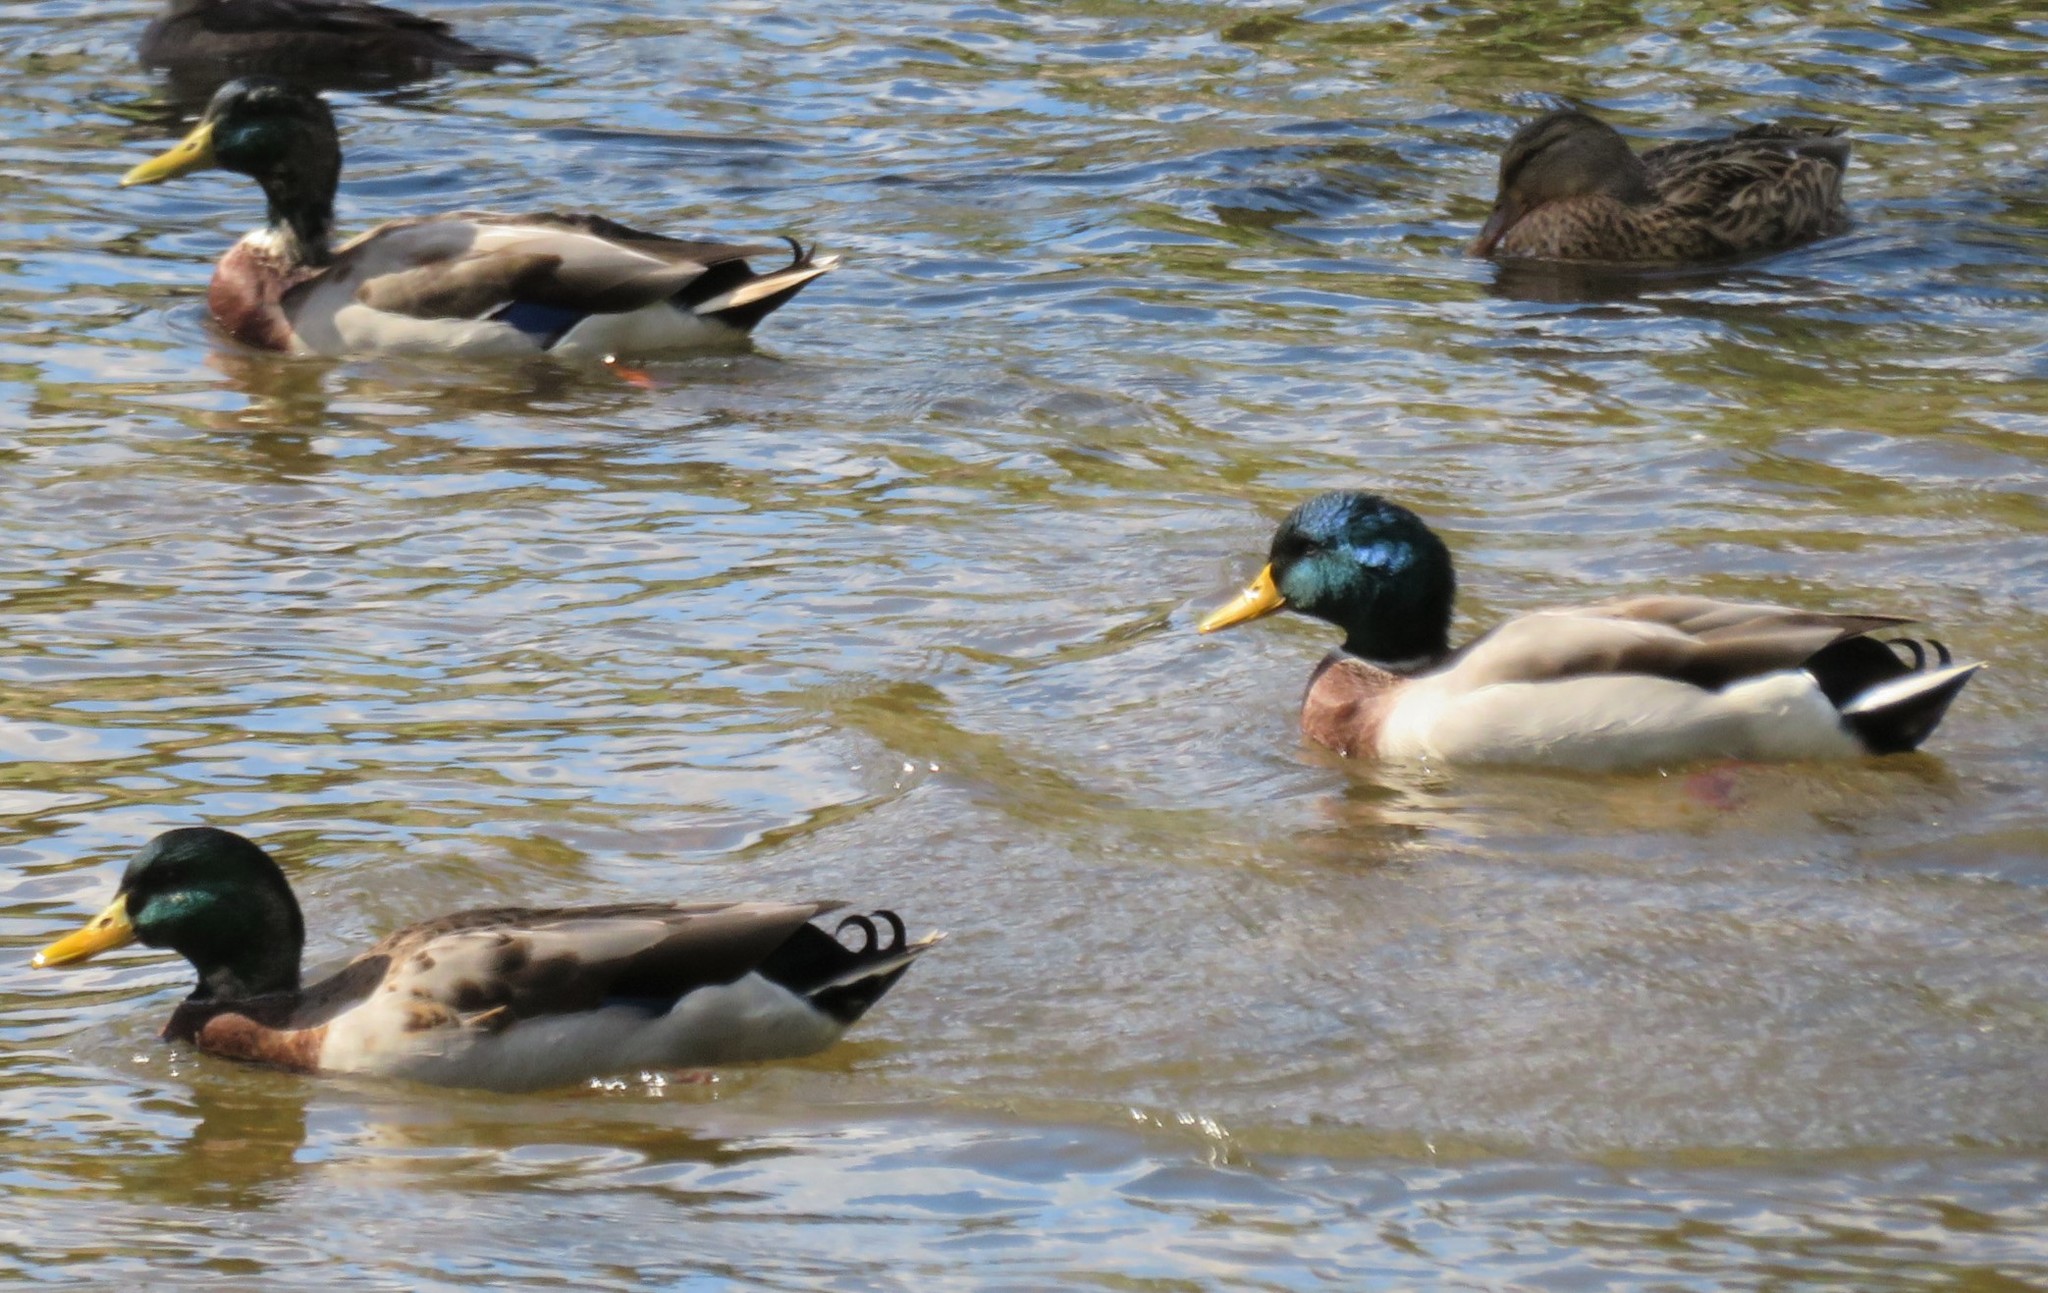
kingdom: Animalia
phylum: Chordata
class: Aves
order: Anseriformes
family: Anatidae
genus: Anas
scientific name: Anas platyrhynchos
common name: Mallard
